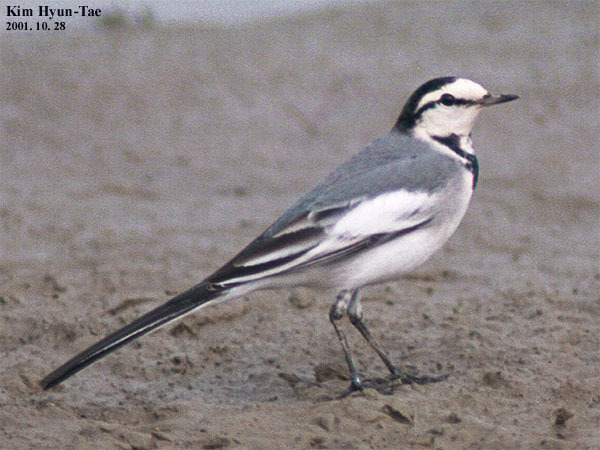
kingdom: Animalia
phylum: Chordata
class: Aves
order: Passeriformes
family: Motacillidae
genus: Motacilla
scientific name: Motacilla alba
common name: White wagtail
